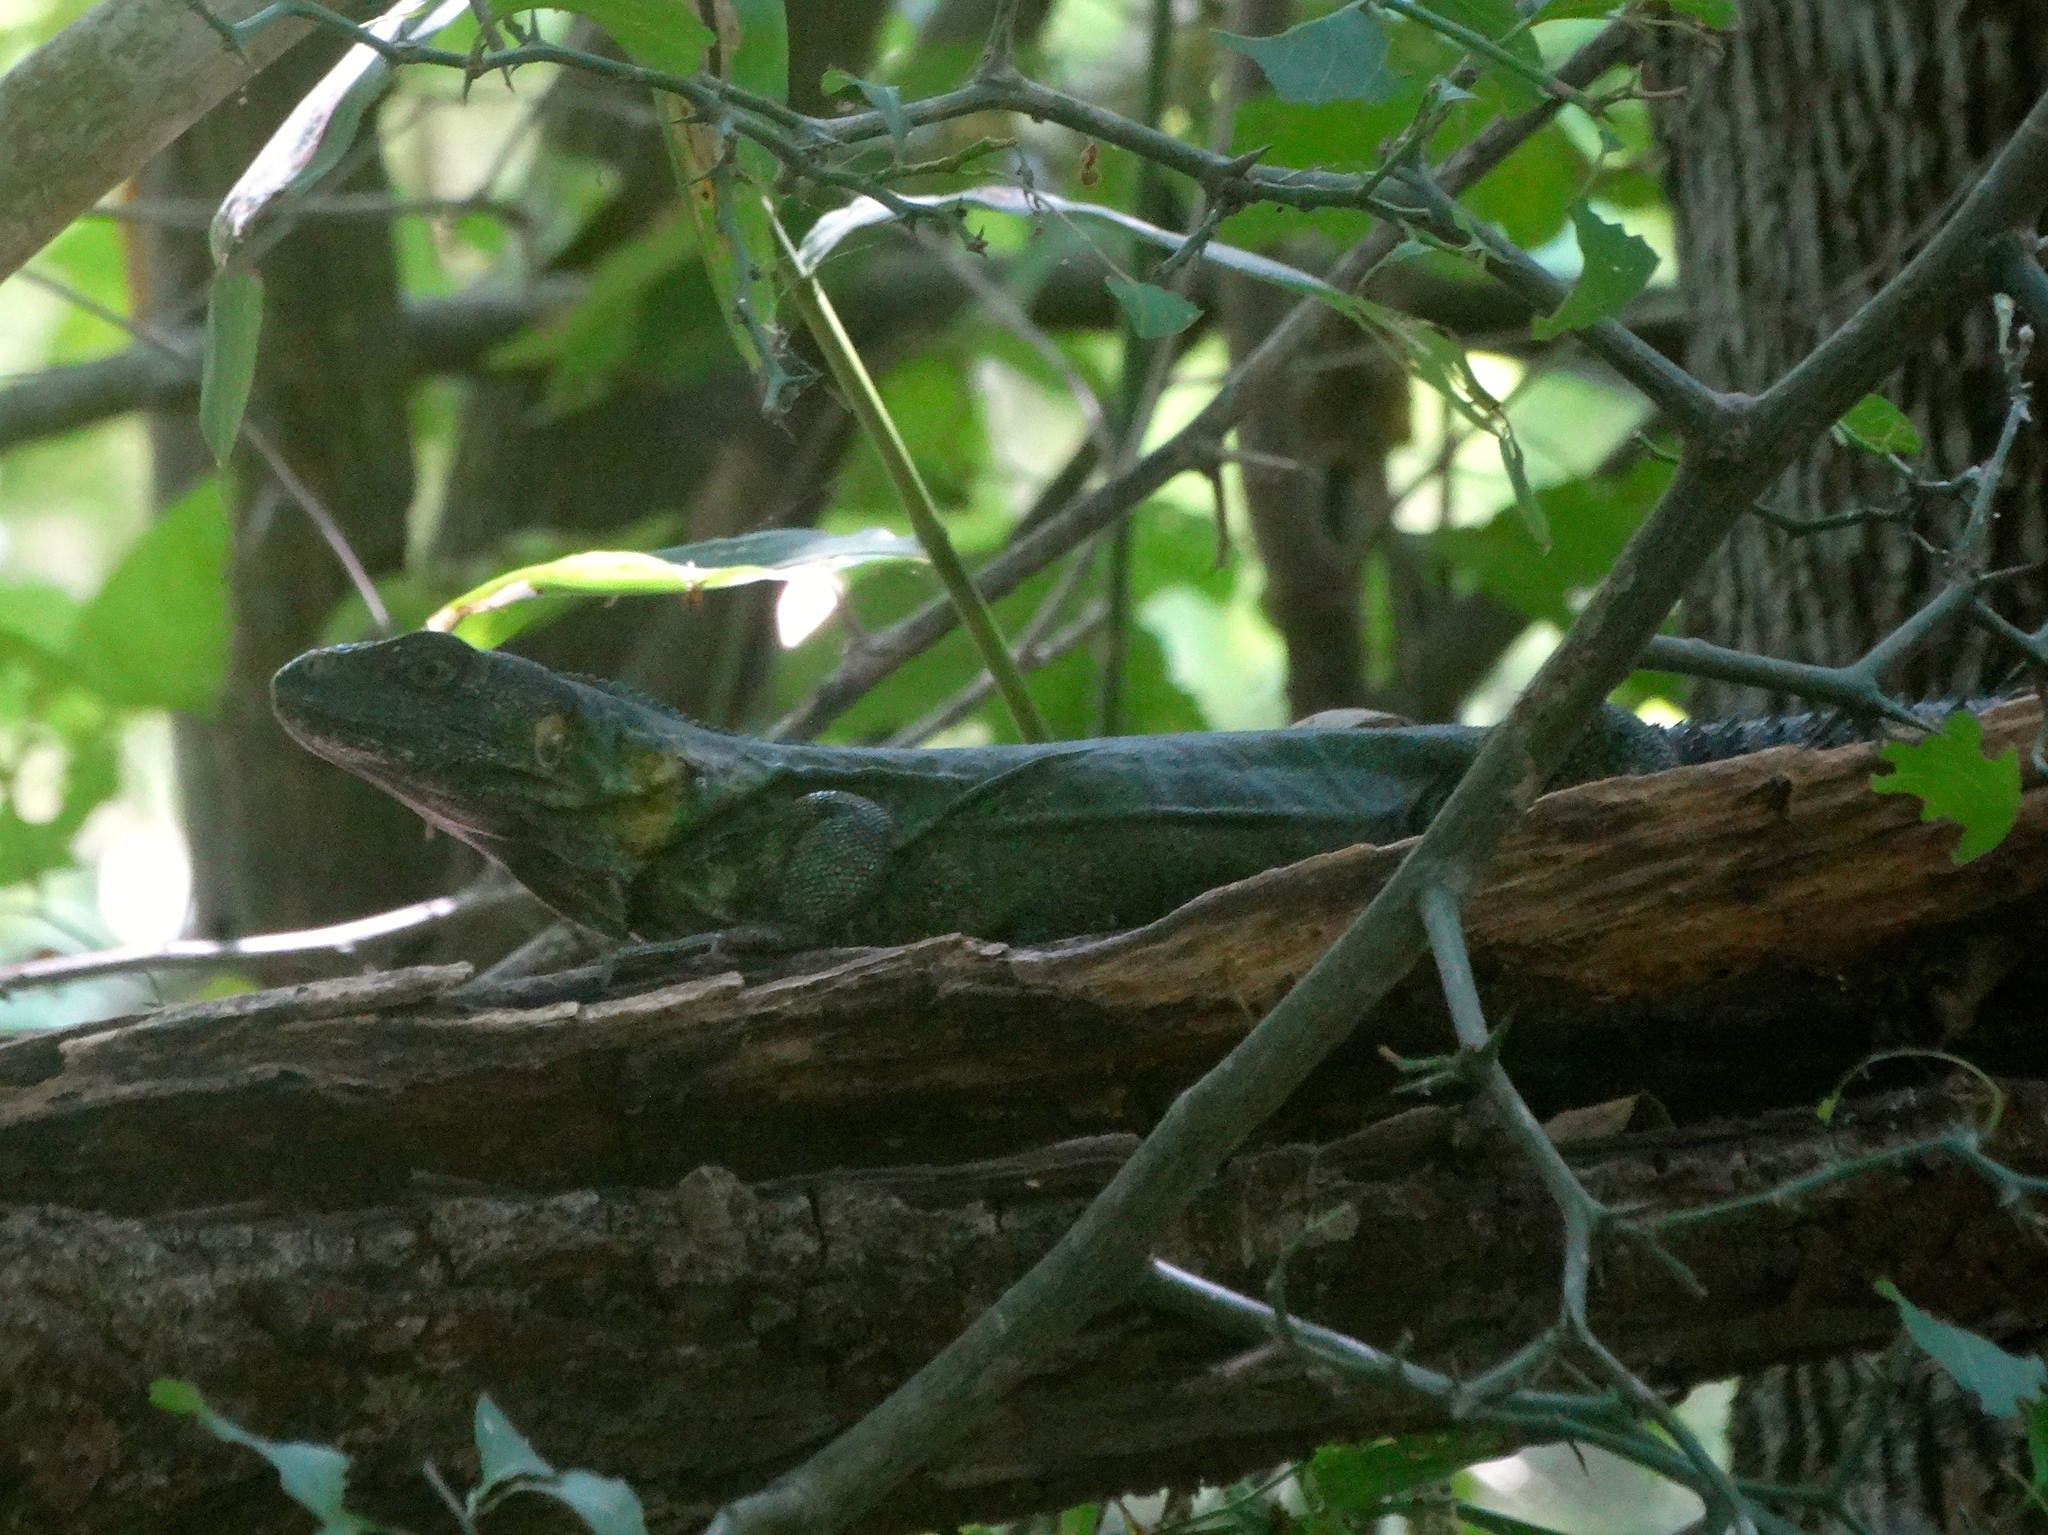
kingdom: Animalia
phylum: Chordata
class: Squamata
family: Iguanidae
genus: Ctenosaura
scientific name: Ctenosaura pectinata
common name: Guerreran spiny-tailed iguana
